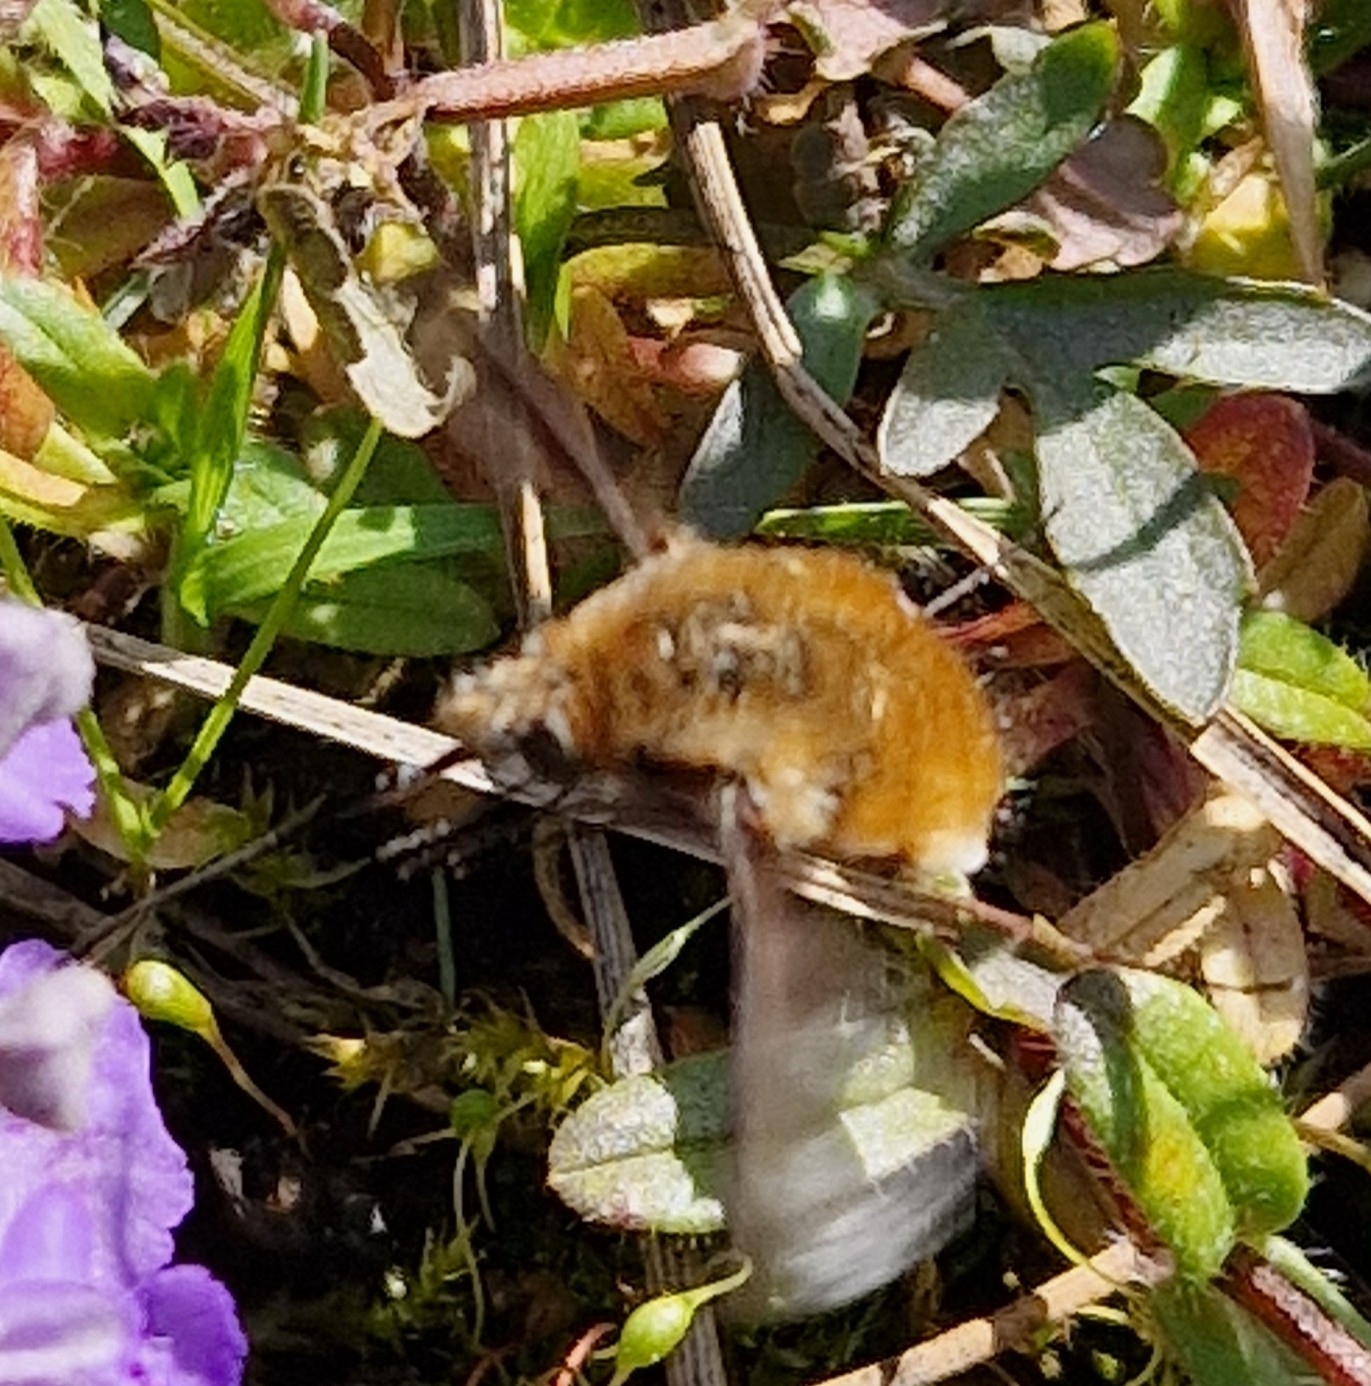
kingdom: Animalia
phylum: Arthropoda
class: Insecta
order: Diptera
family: Bombyliidae
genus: Bombylius
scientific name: Bombylius major
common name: Bee fly
